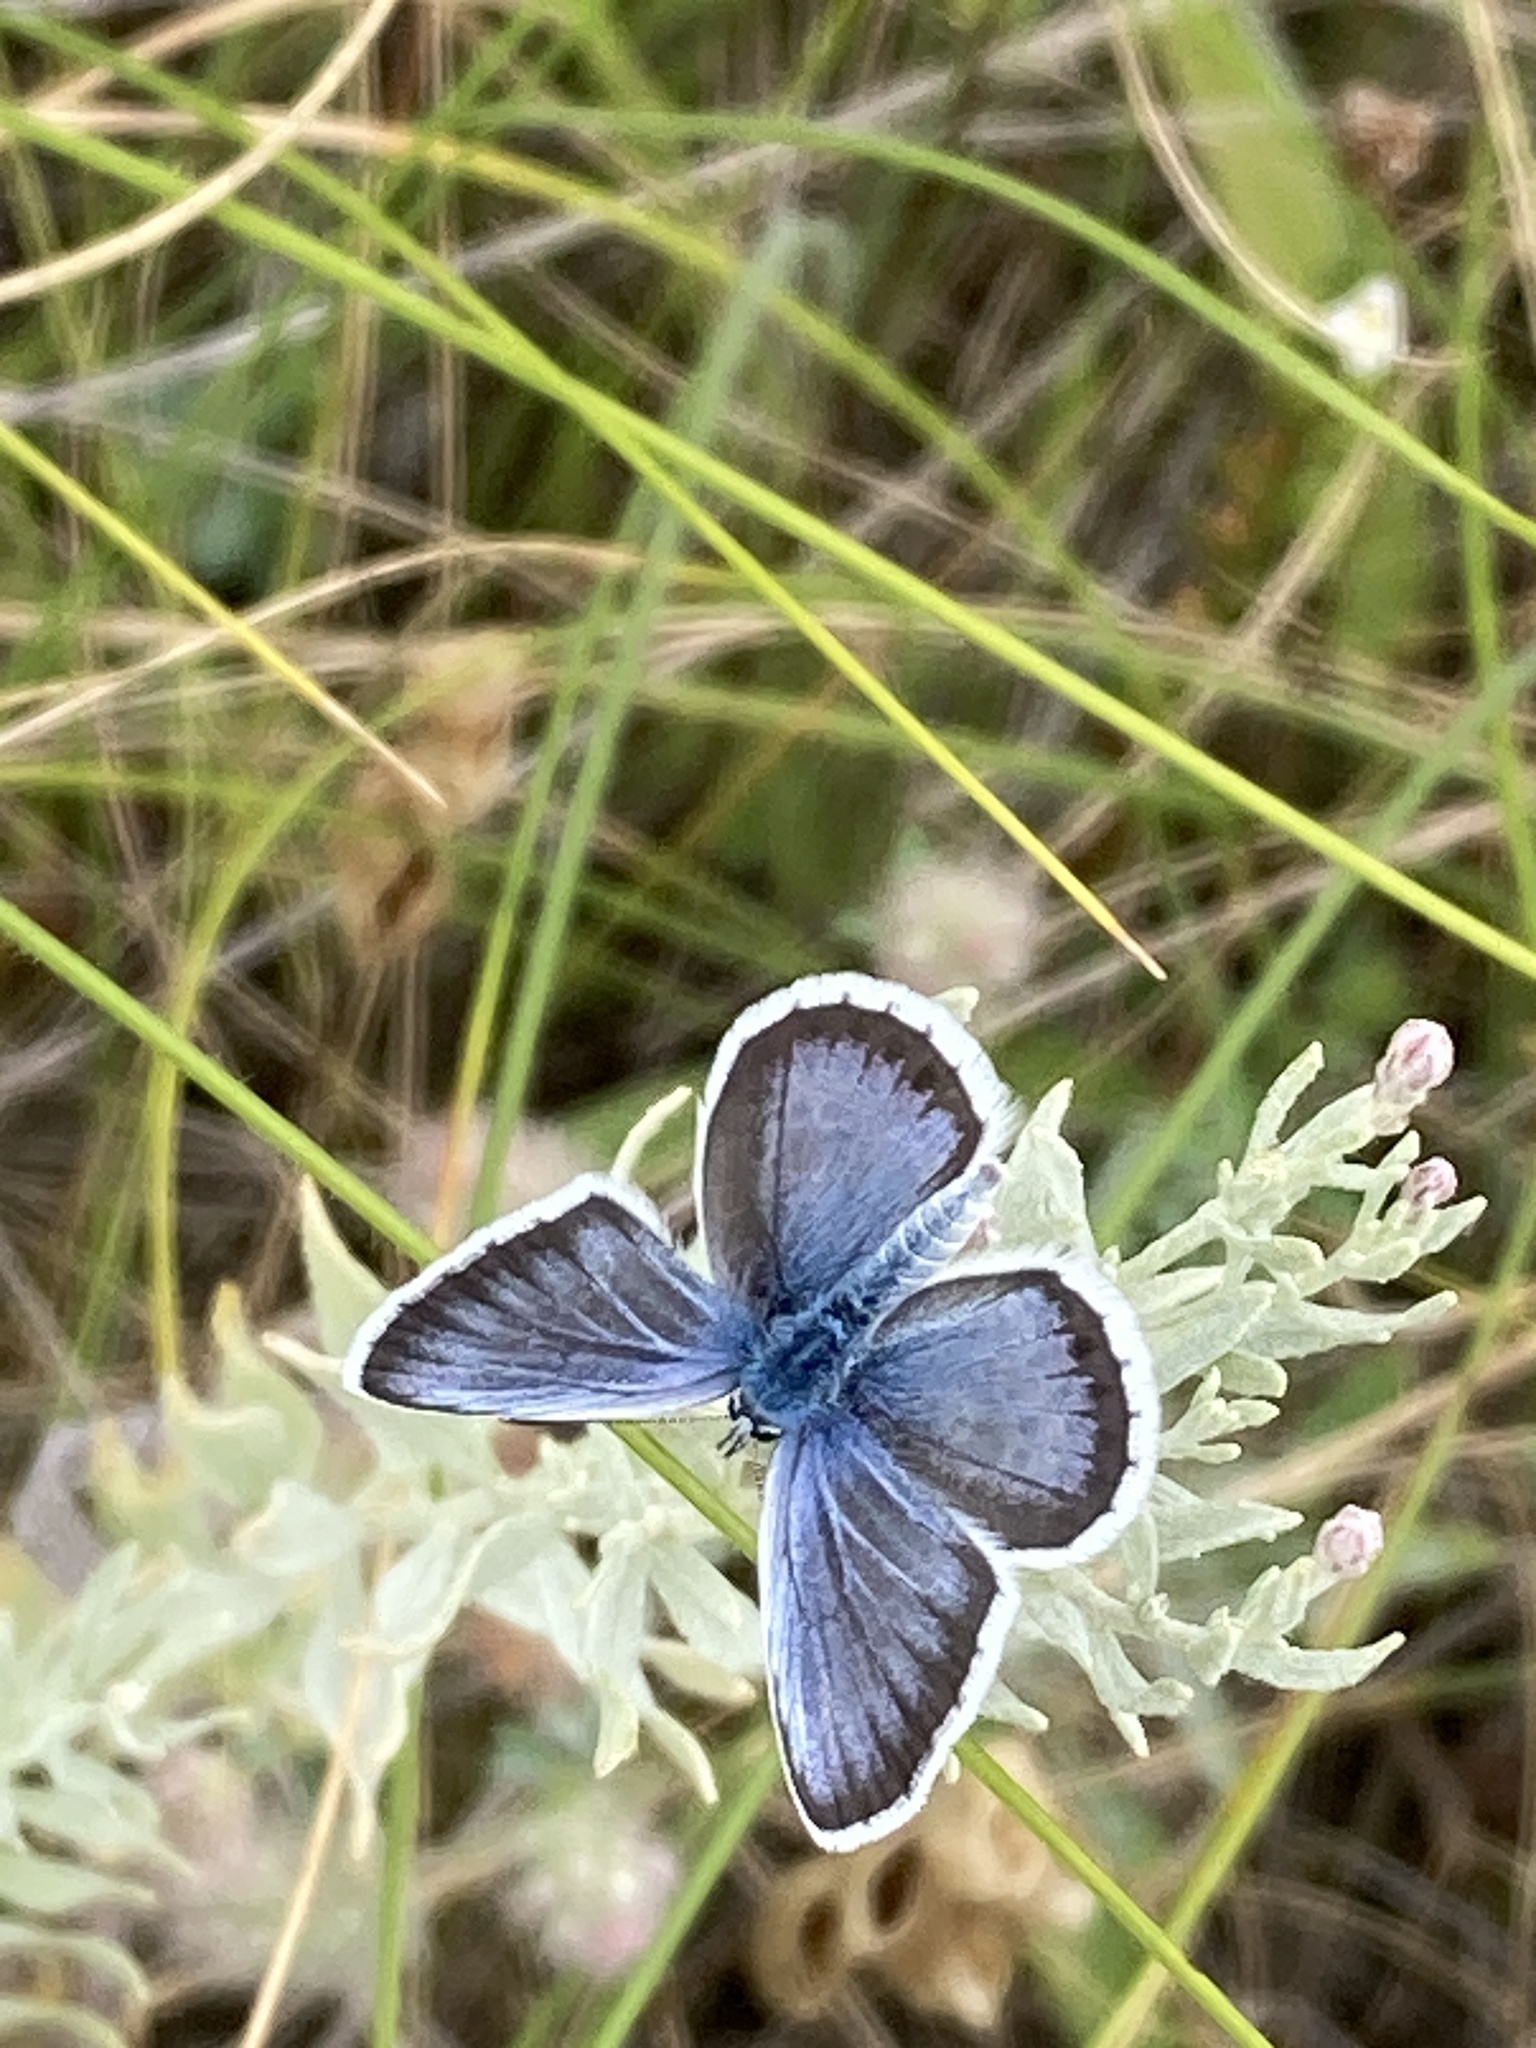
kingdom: Animalia
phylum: Arthropoda
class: Insecta
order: Lepidoptera
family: Lycaenidae
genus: Plebejus
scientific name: Plebejus argus
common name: Silver-studded blue
